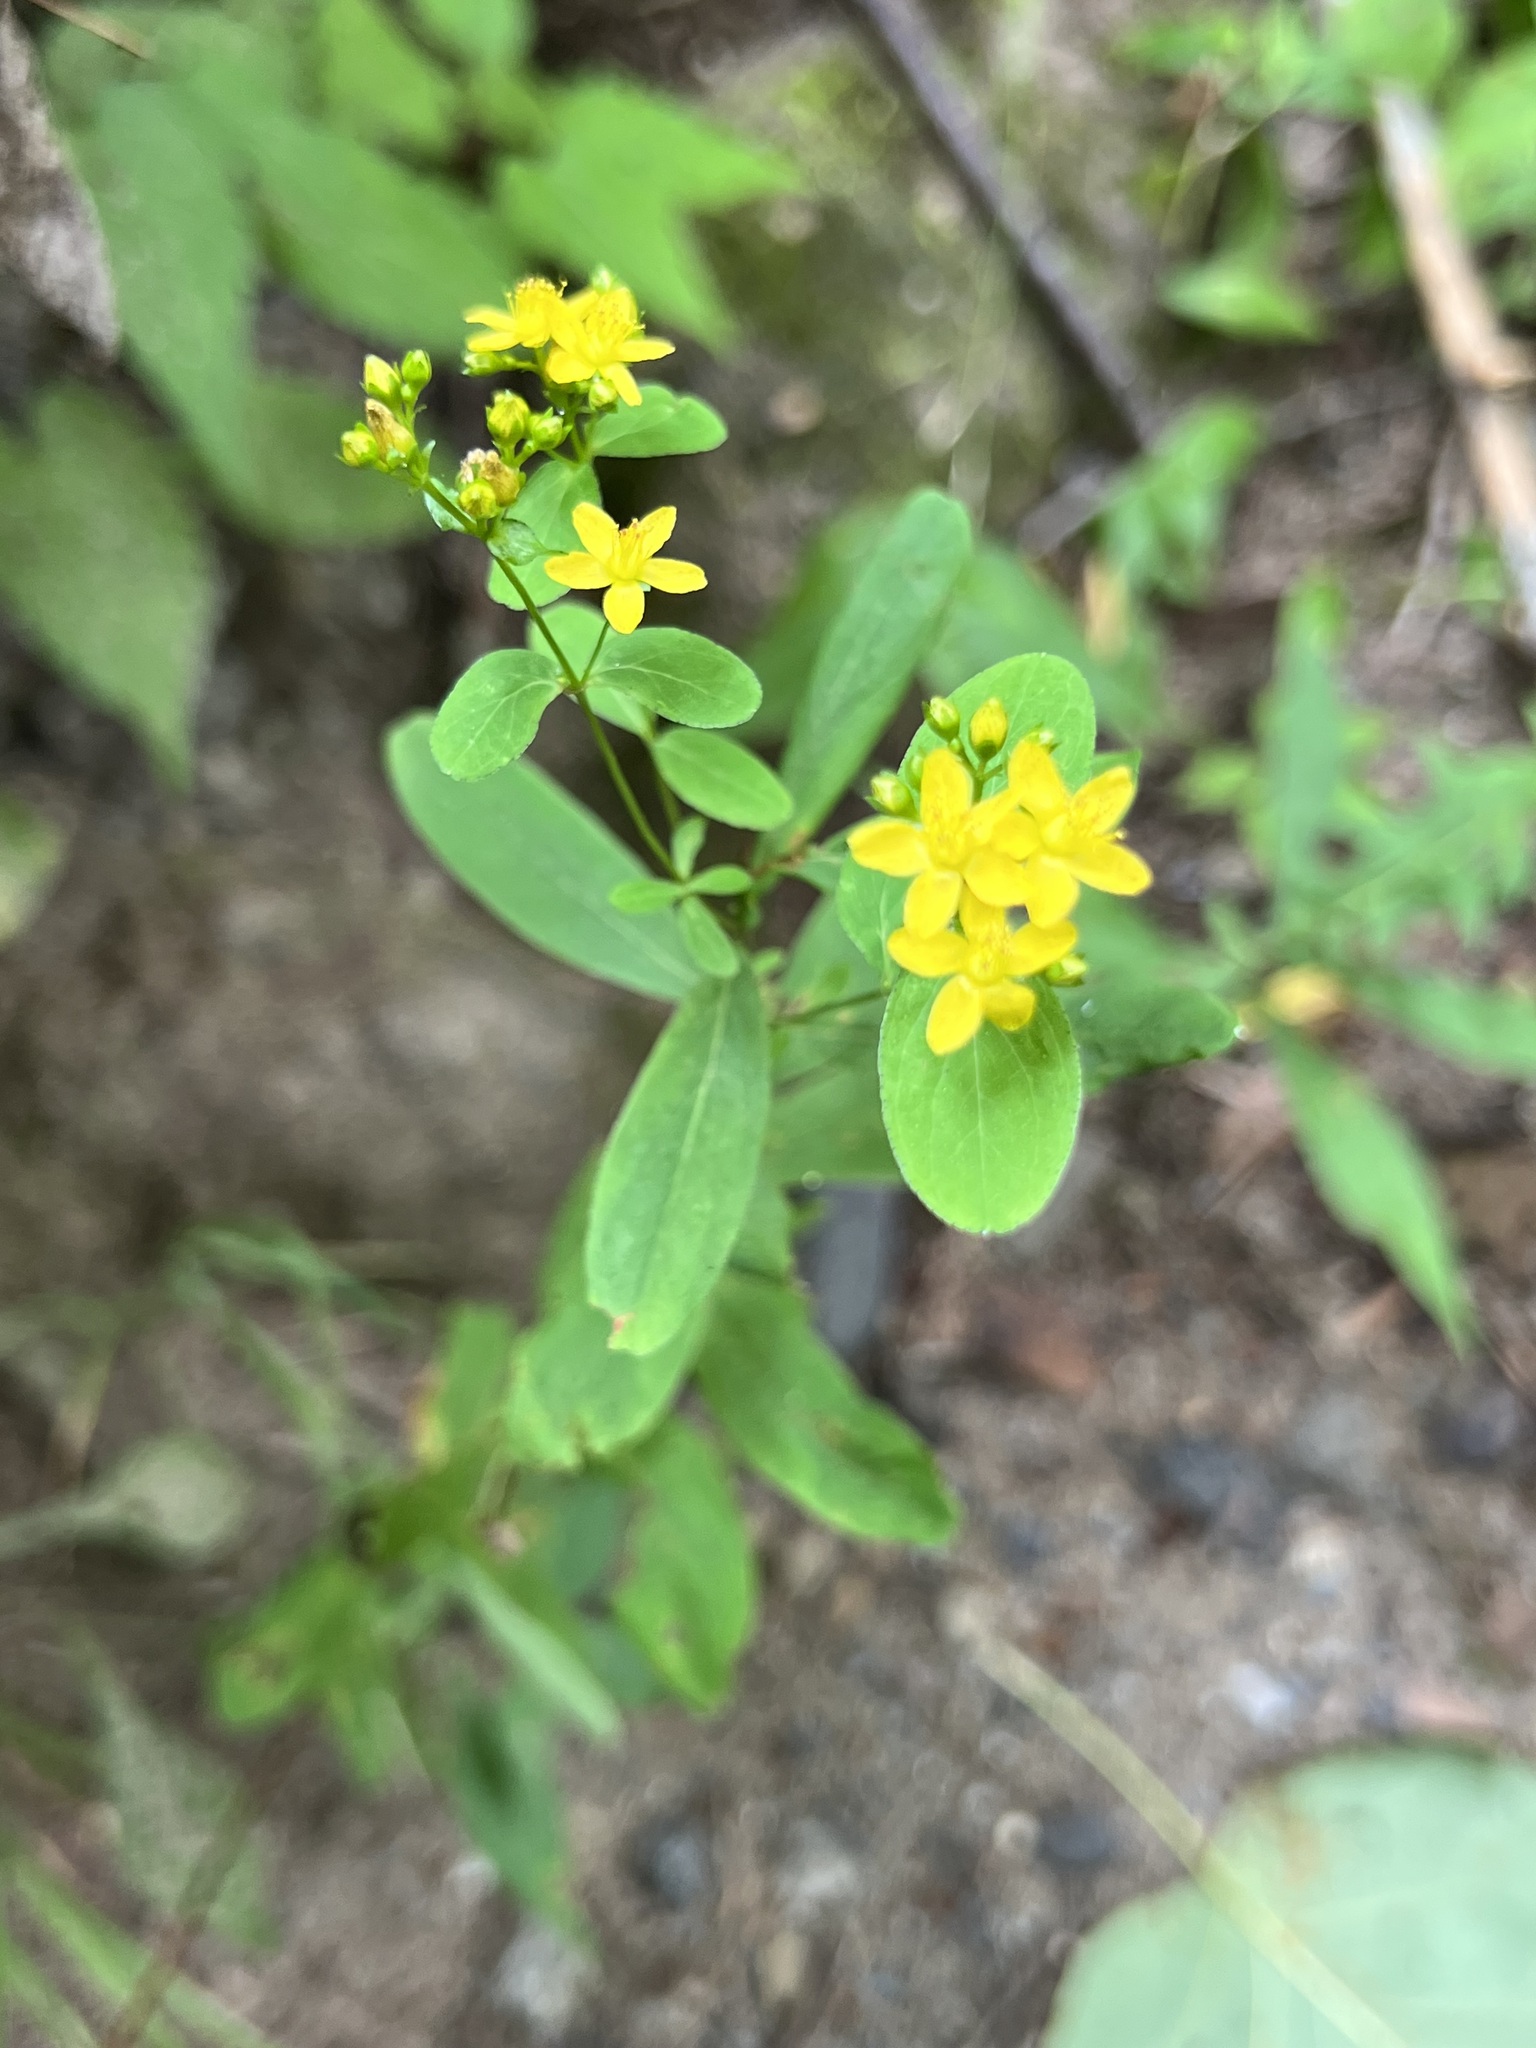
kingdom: Plantae
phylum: Tracheophyta
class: Magnoliopsida
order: Malpighiales
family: Hypericaceae
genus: Hypericum
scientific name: Hypericum punctatum
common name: Spotted st. john's-wort
